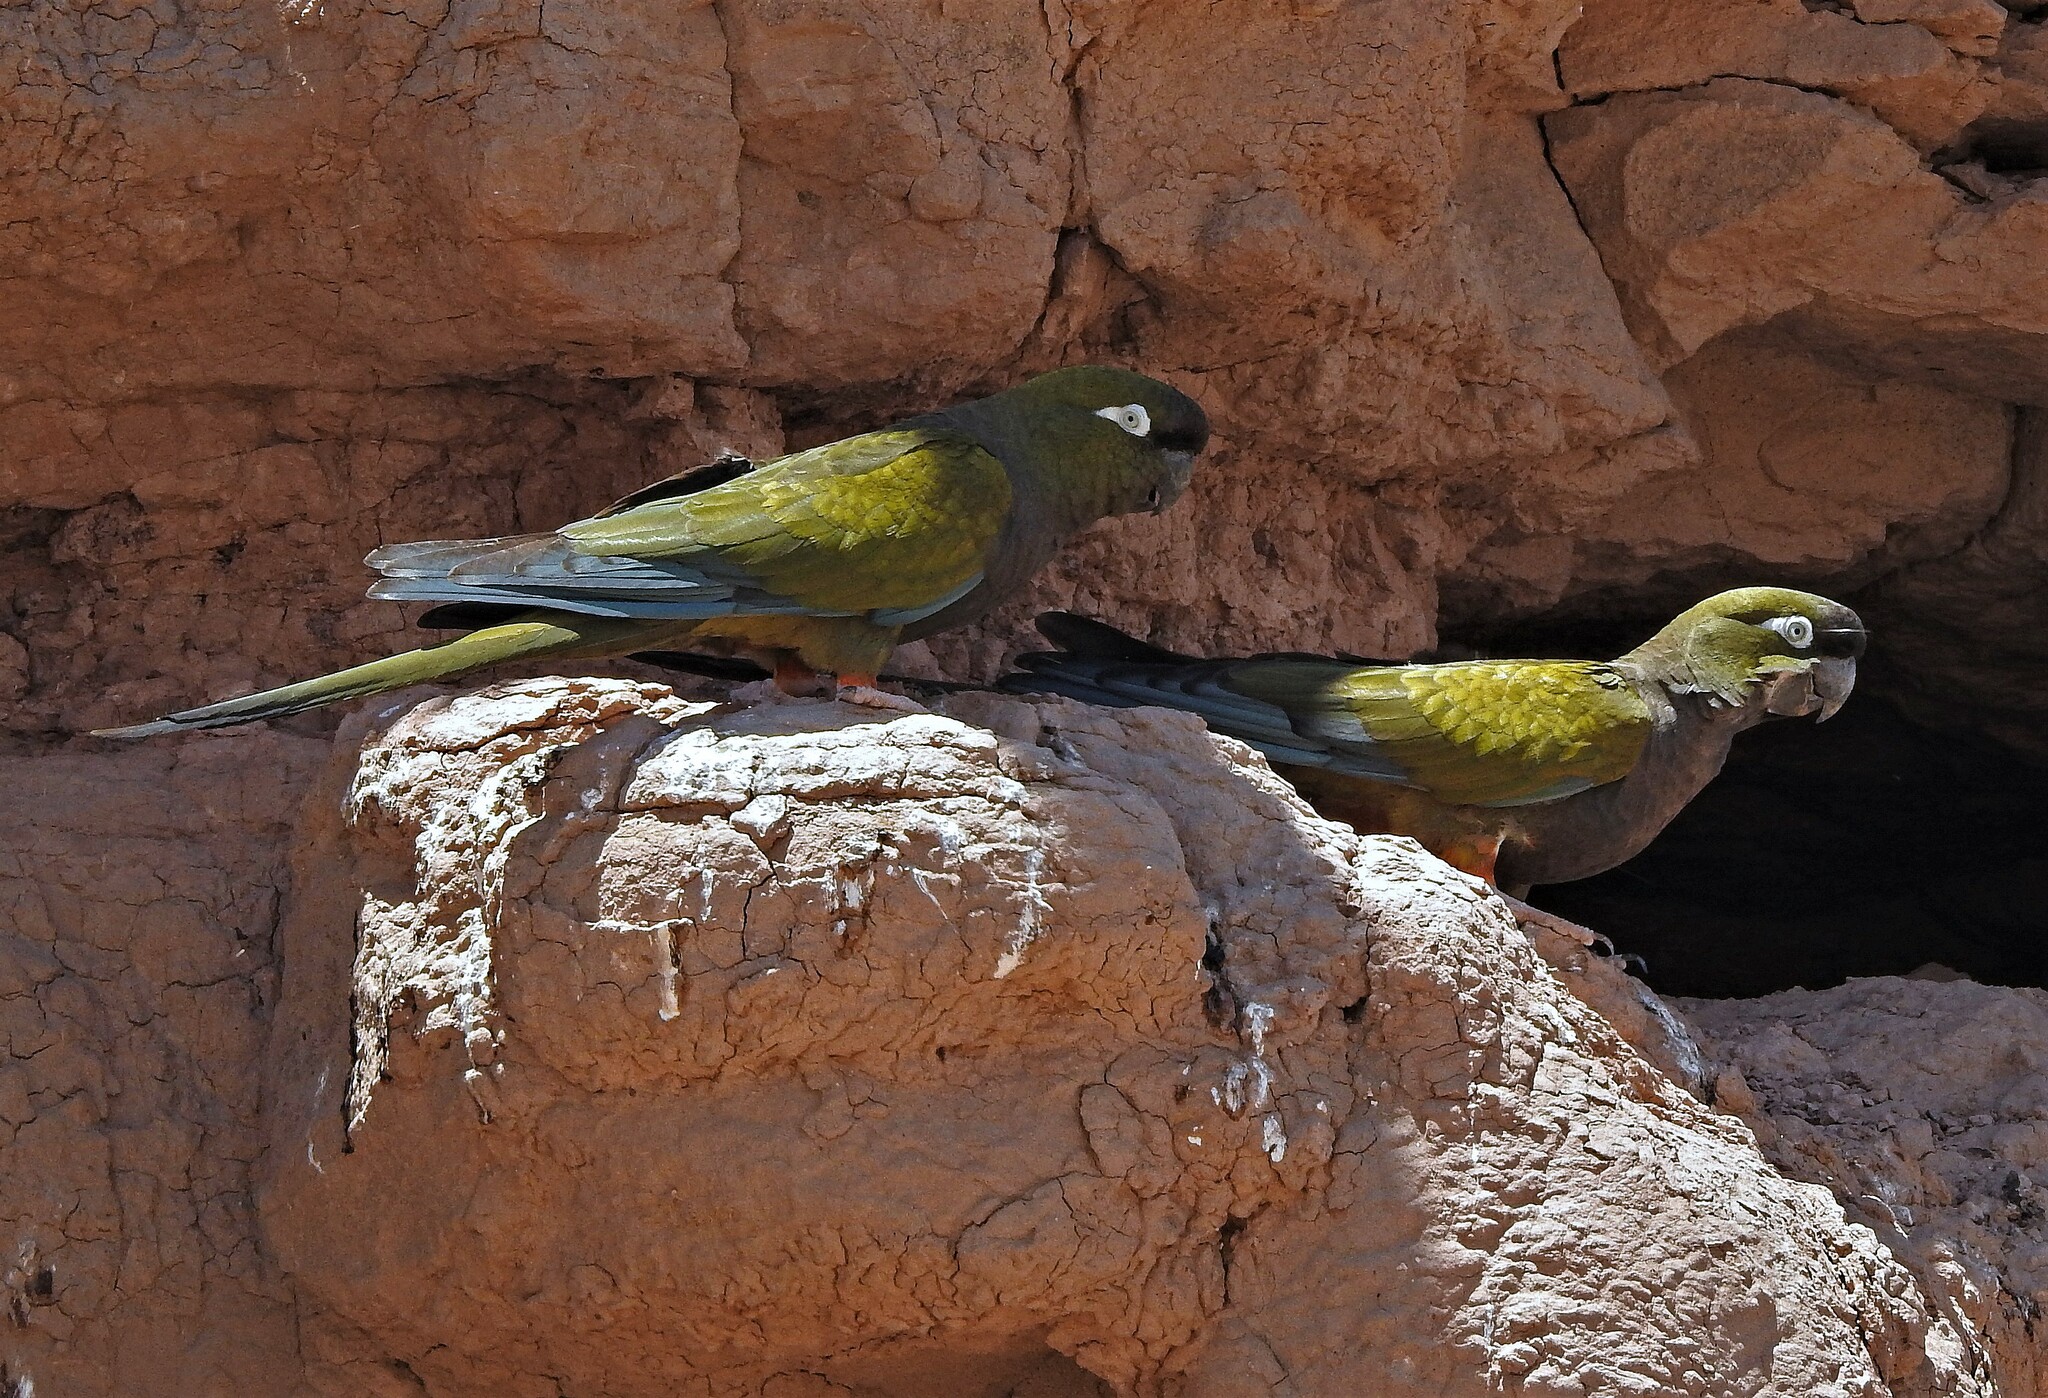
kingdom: Animalia
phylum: Chordata
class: Aves
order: Psittaciformes
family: Psittacidae
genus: Cyanoliseus
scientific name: Cyanoliseus patagonus
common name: Burrowing parrot
